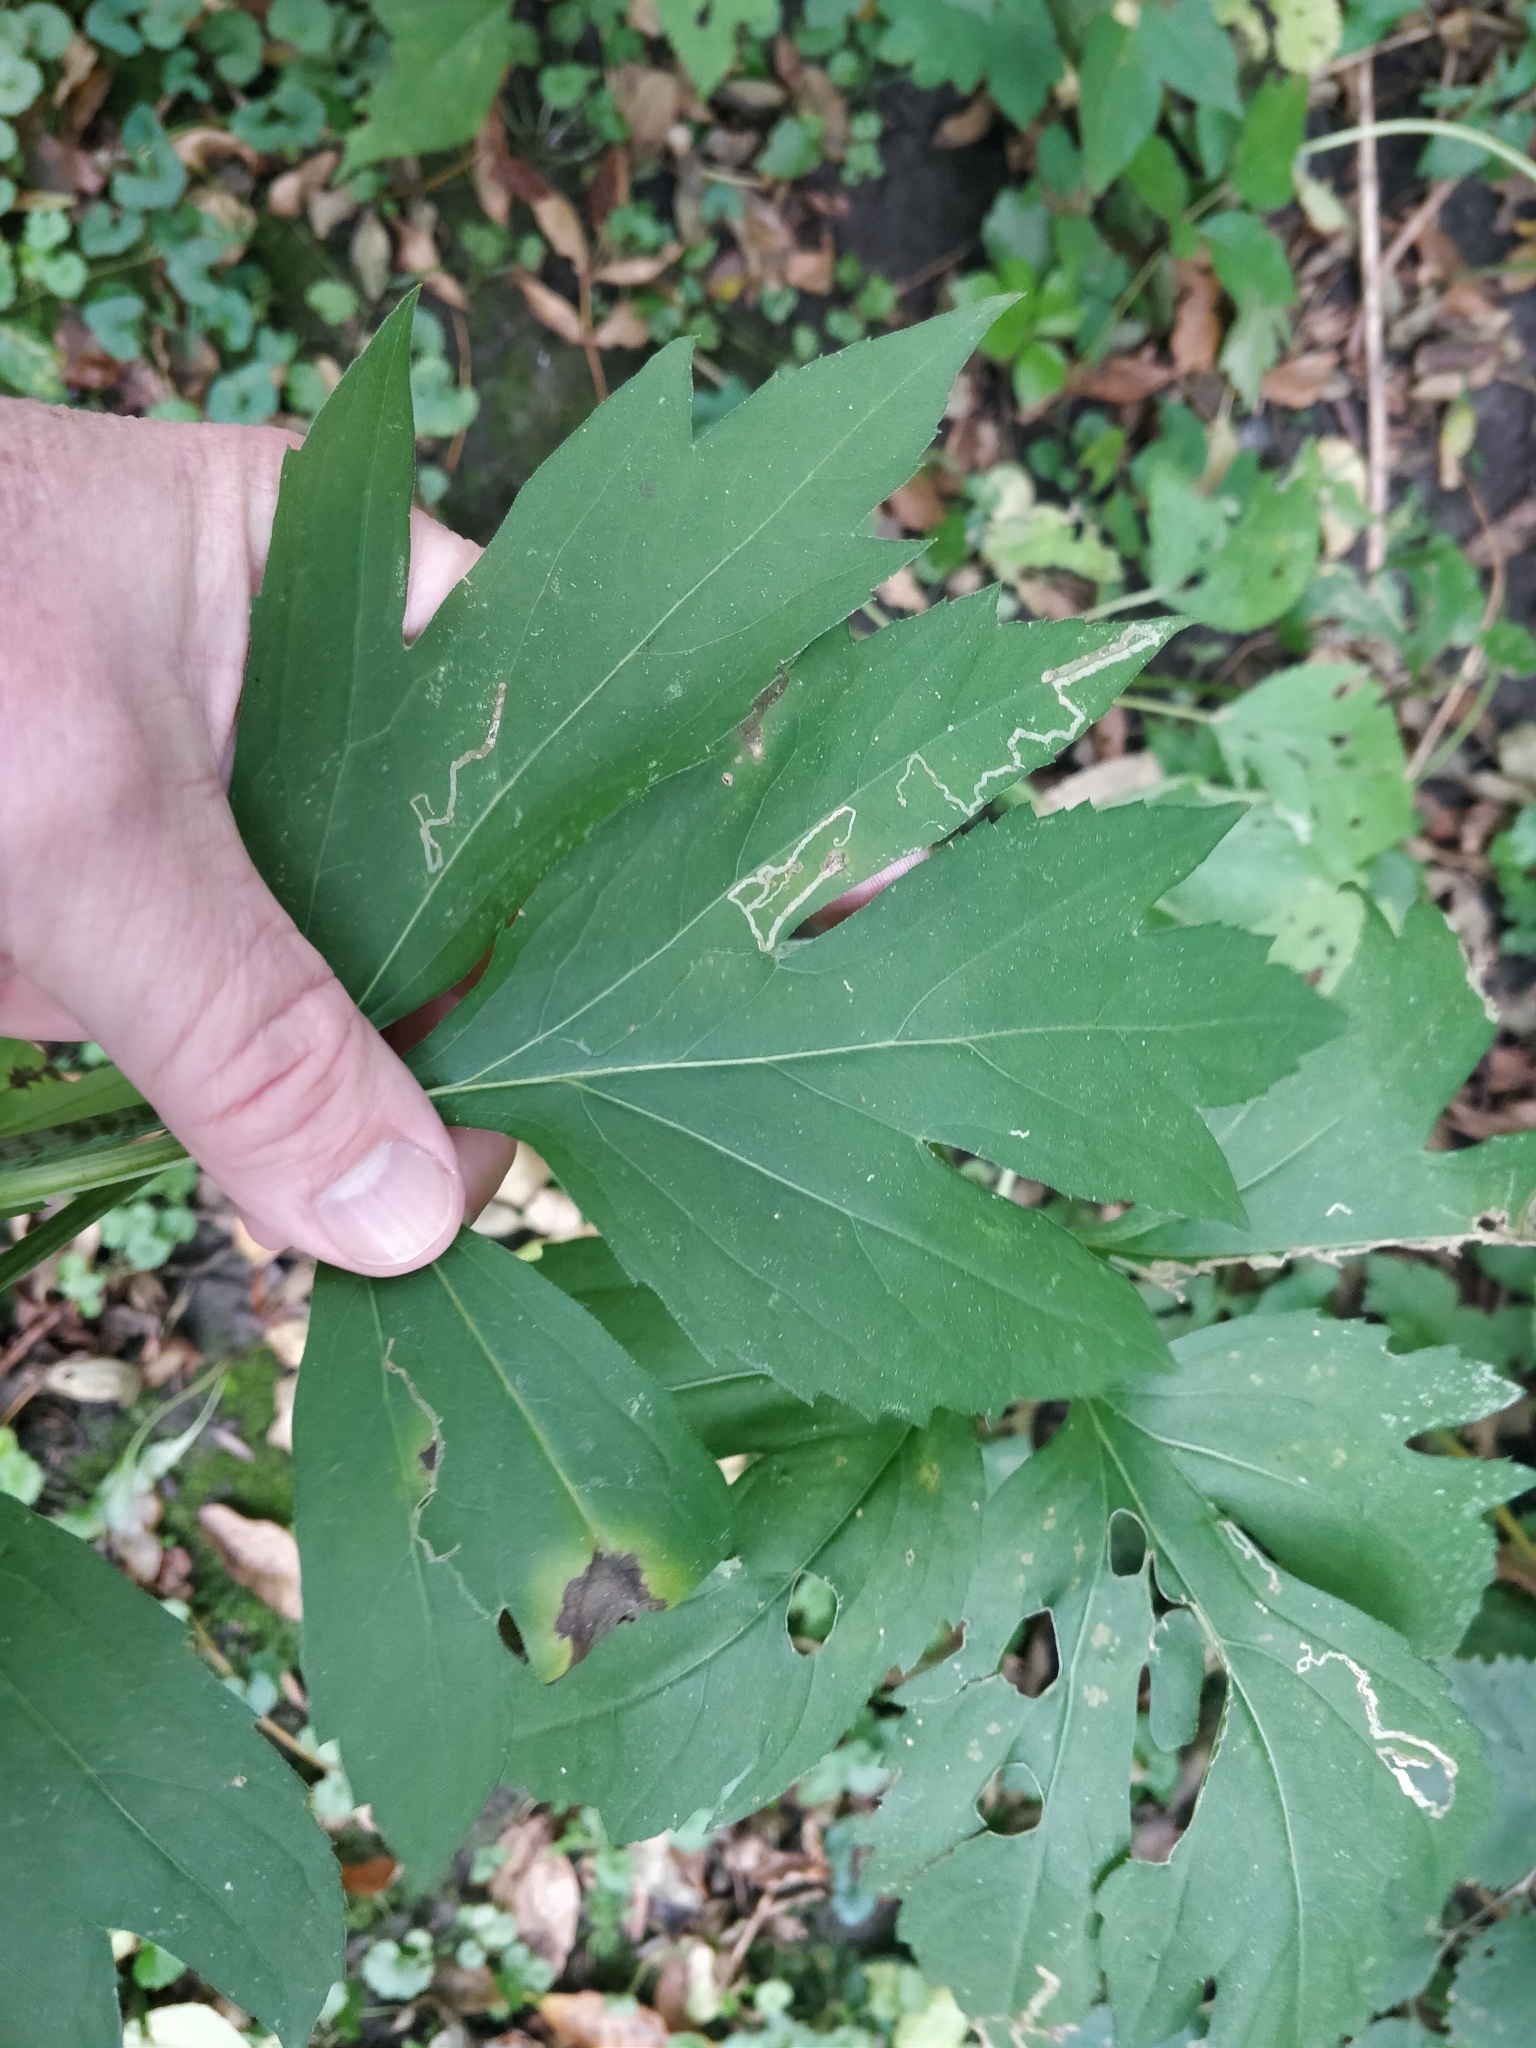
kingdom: Plantae
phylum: Tracheophyta
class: Magnoliopsida
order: Asterales
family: Asteraceae
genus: Rudbeckia
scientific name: Rudbeckia laciniata
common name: Coneflower
